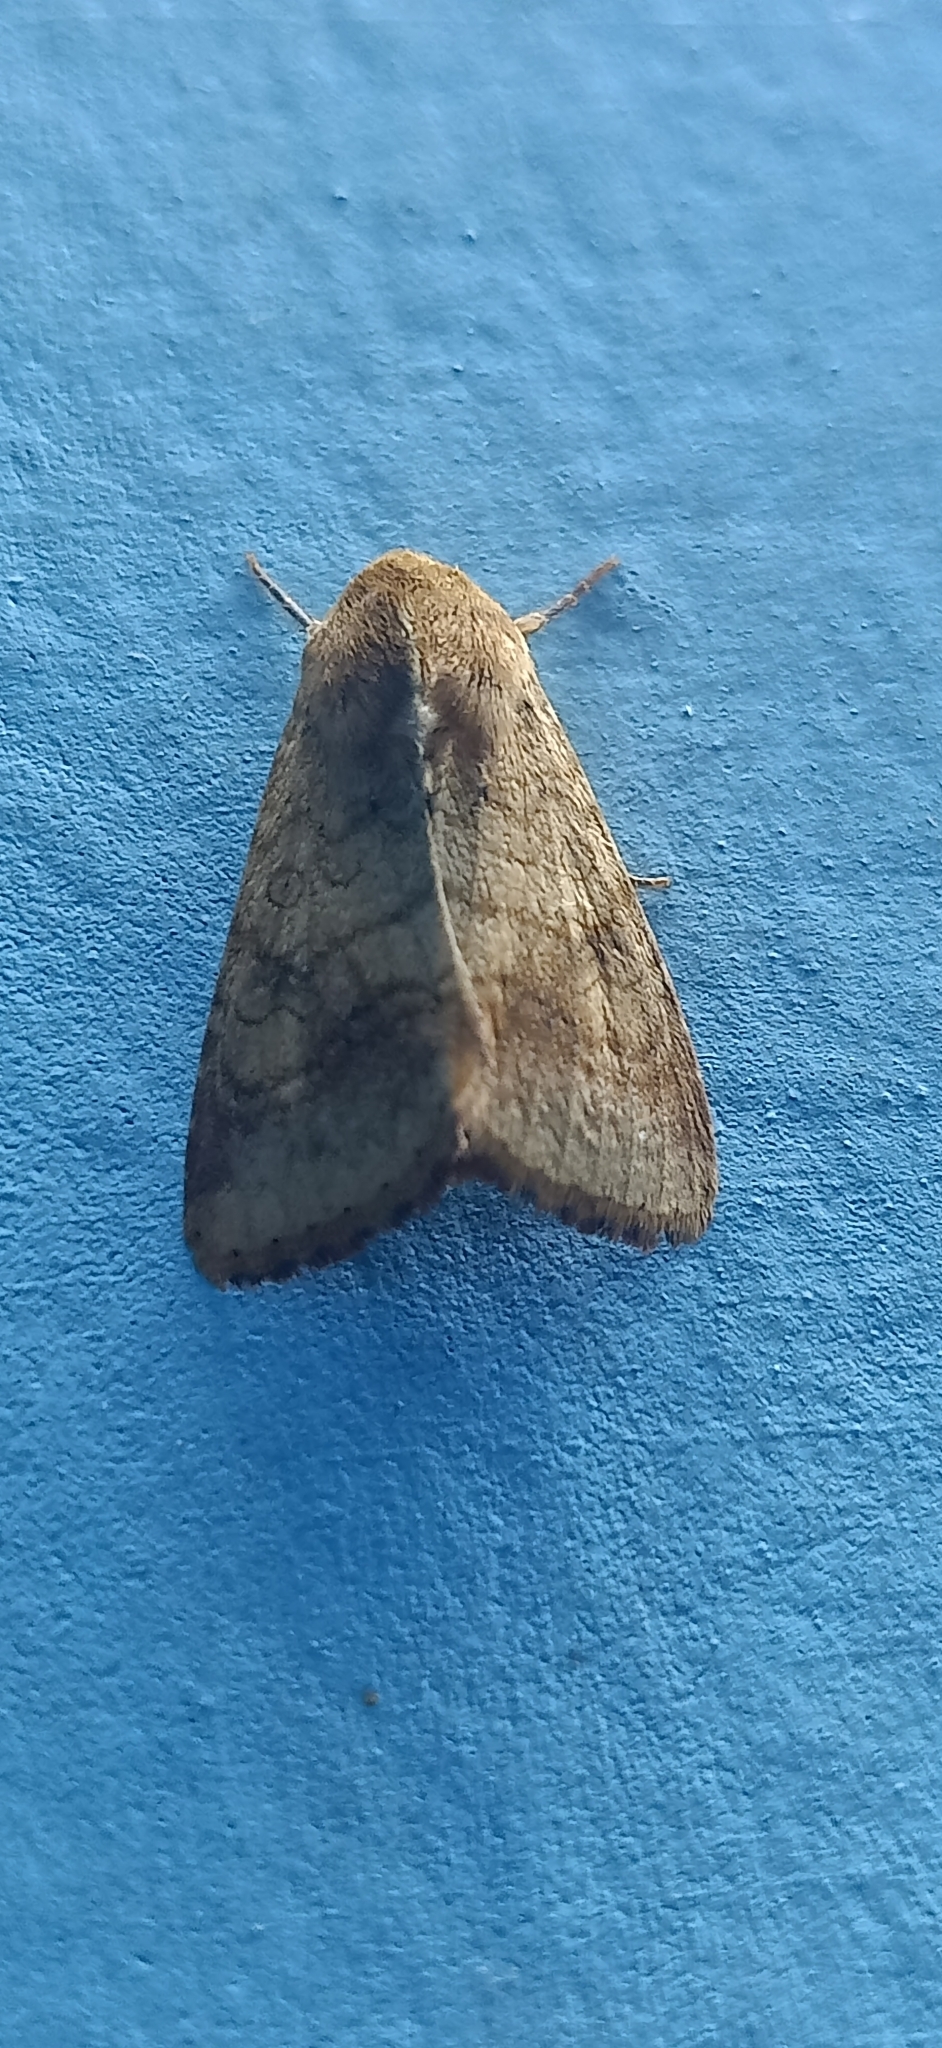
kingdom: Animalia
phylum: Arthropoda
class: Insecta
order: Lepidoptera
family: Noctuidae
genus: Helicoverpa
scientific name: Helicoverpa armigera
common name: Cotton bollworm
